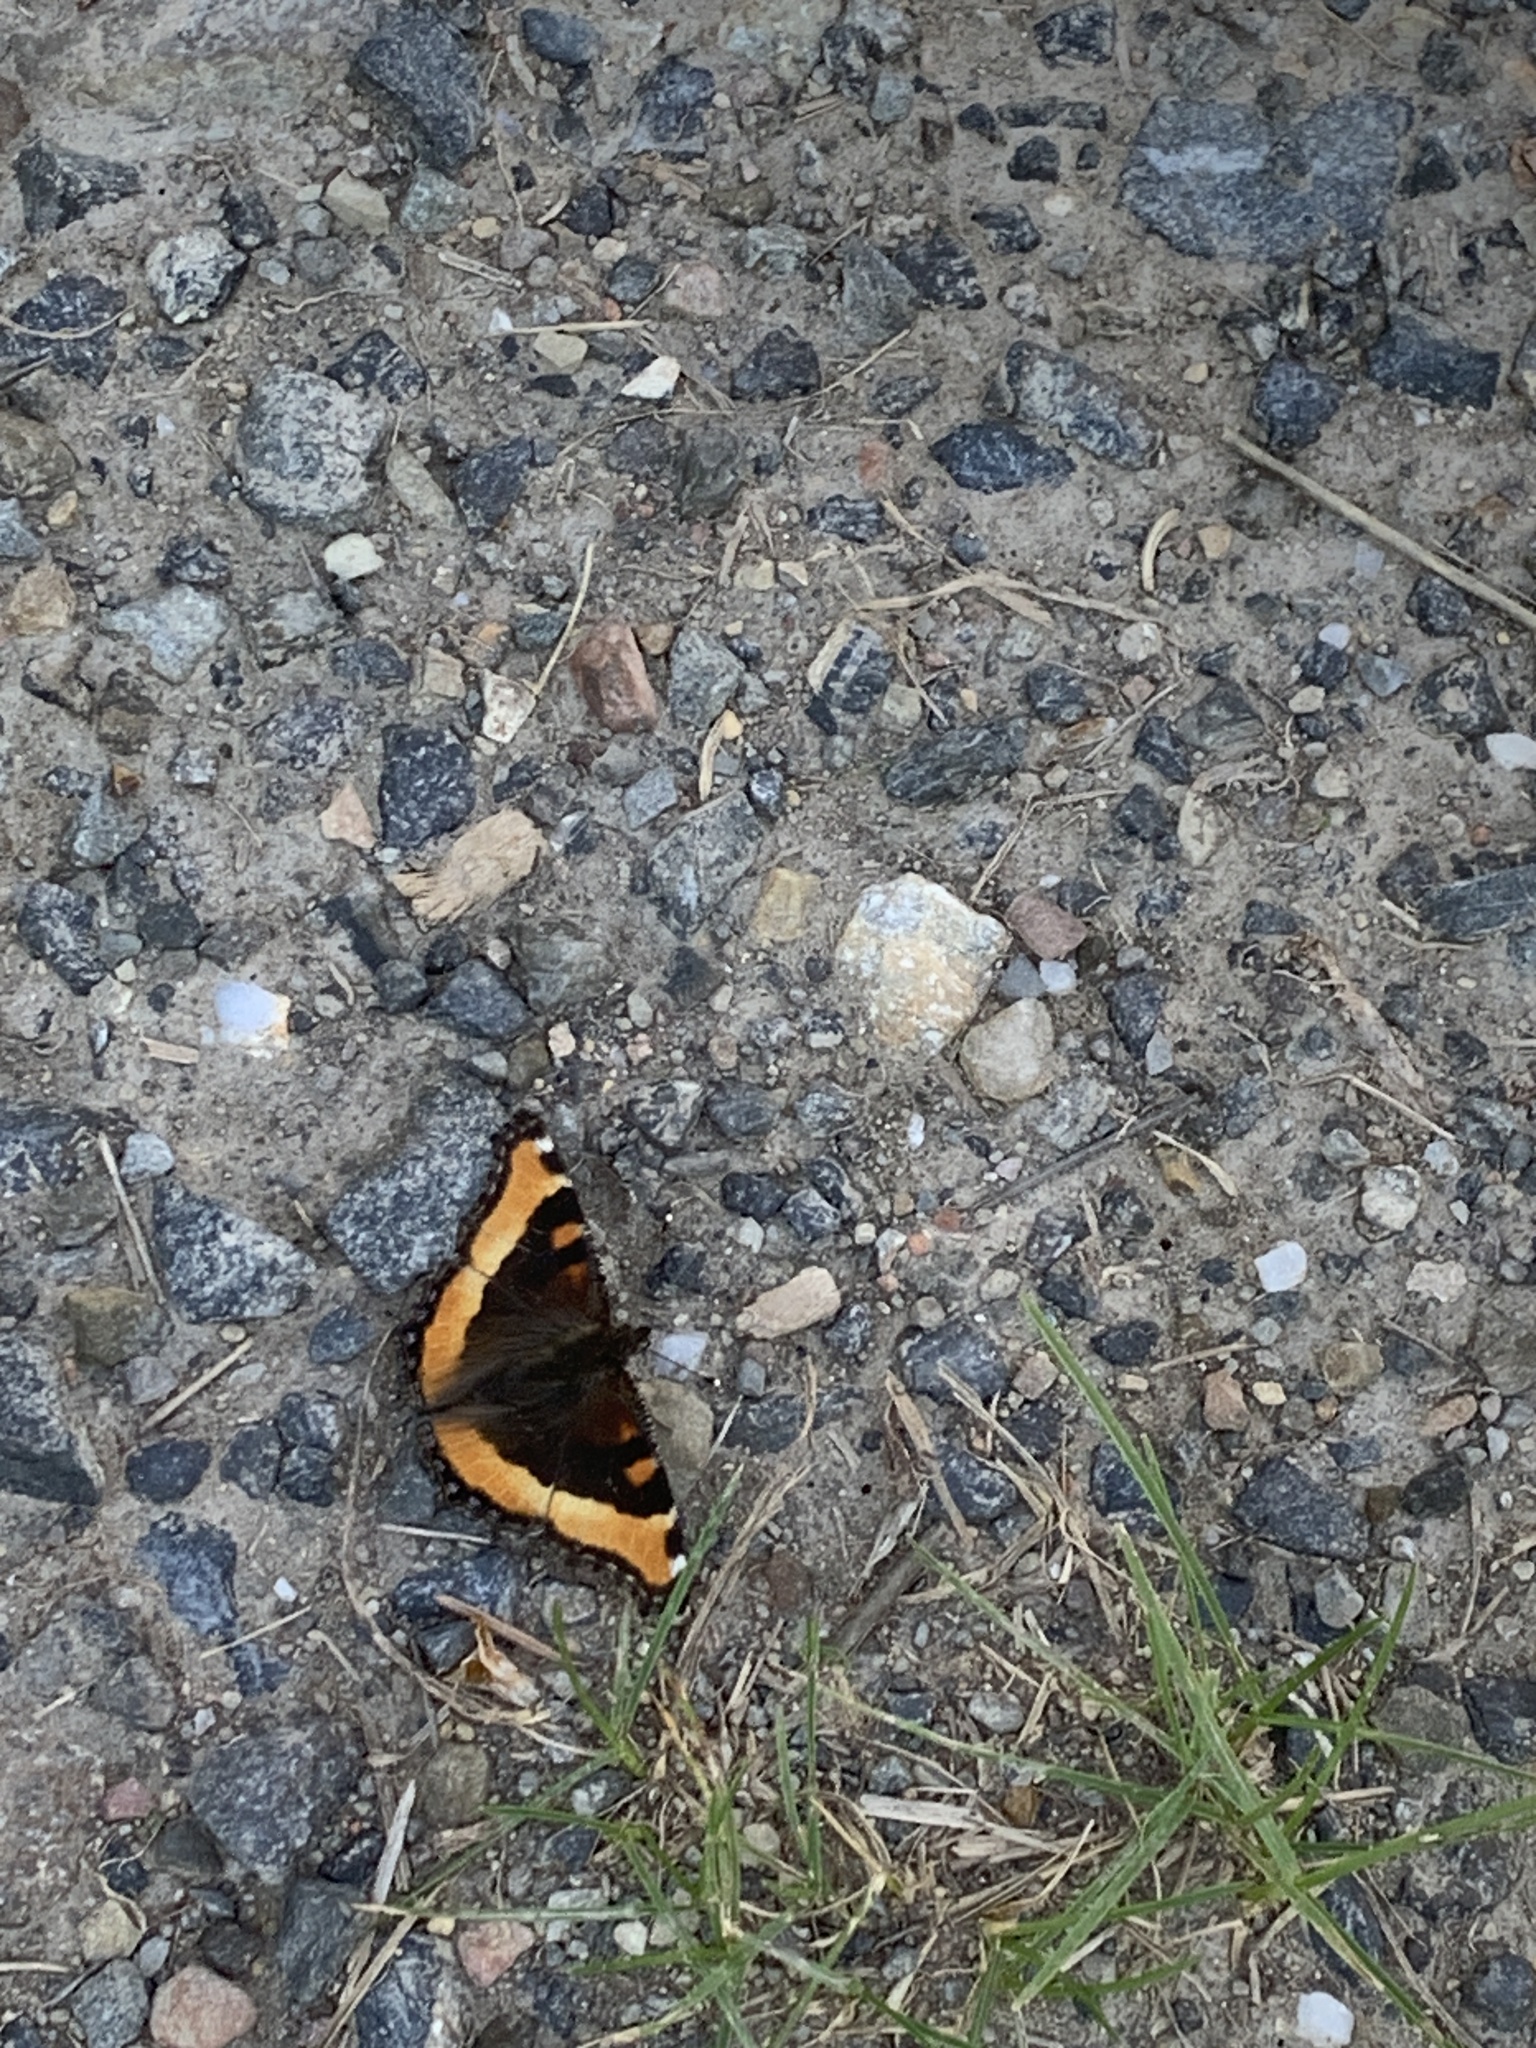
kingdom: Animalia
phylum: Arthropoda
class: Insecta
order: Lepidoptera
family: Nymphalidae
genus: Aglais
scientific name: Aglais milberti
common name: Milbert's tortoiseshell
